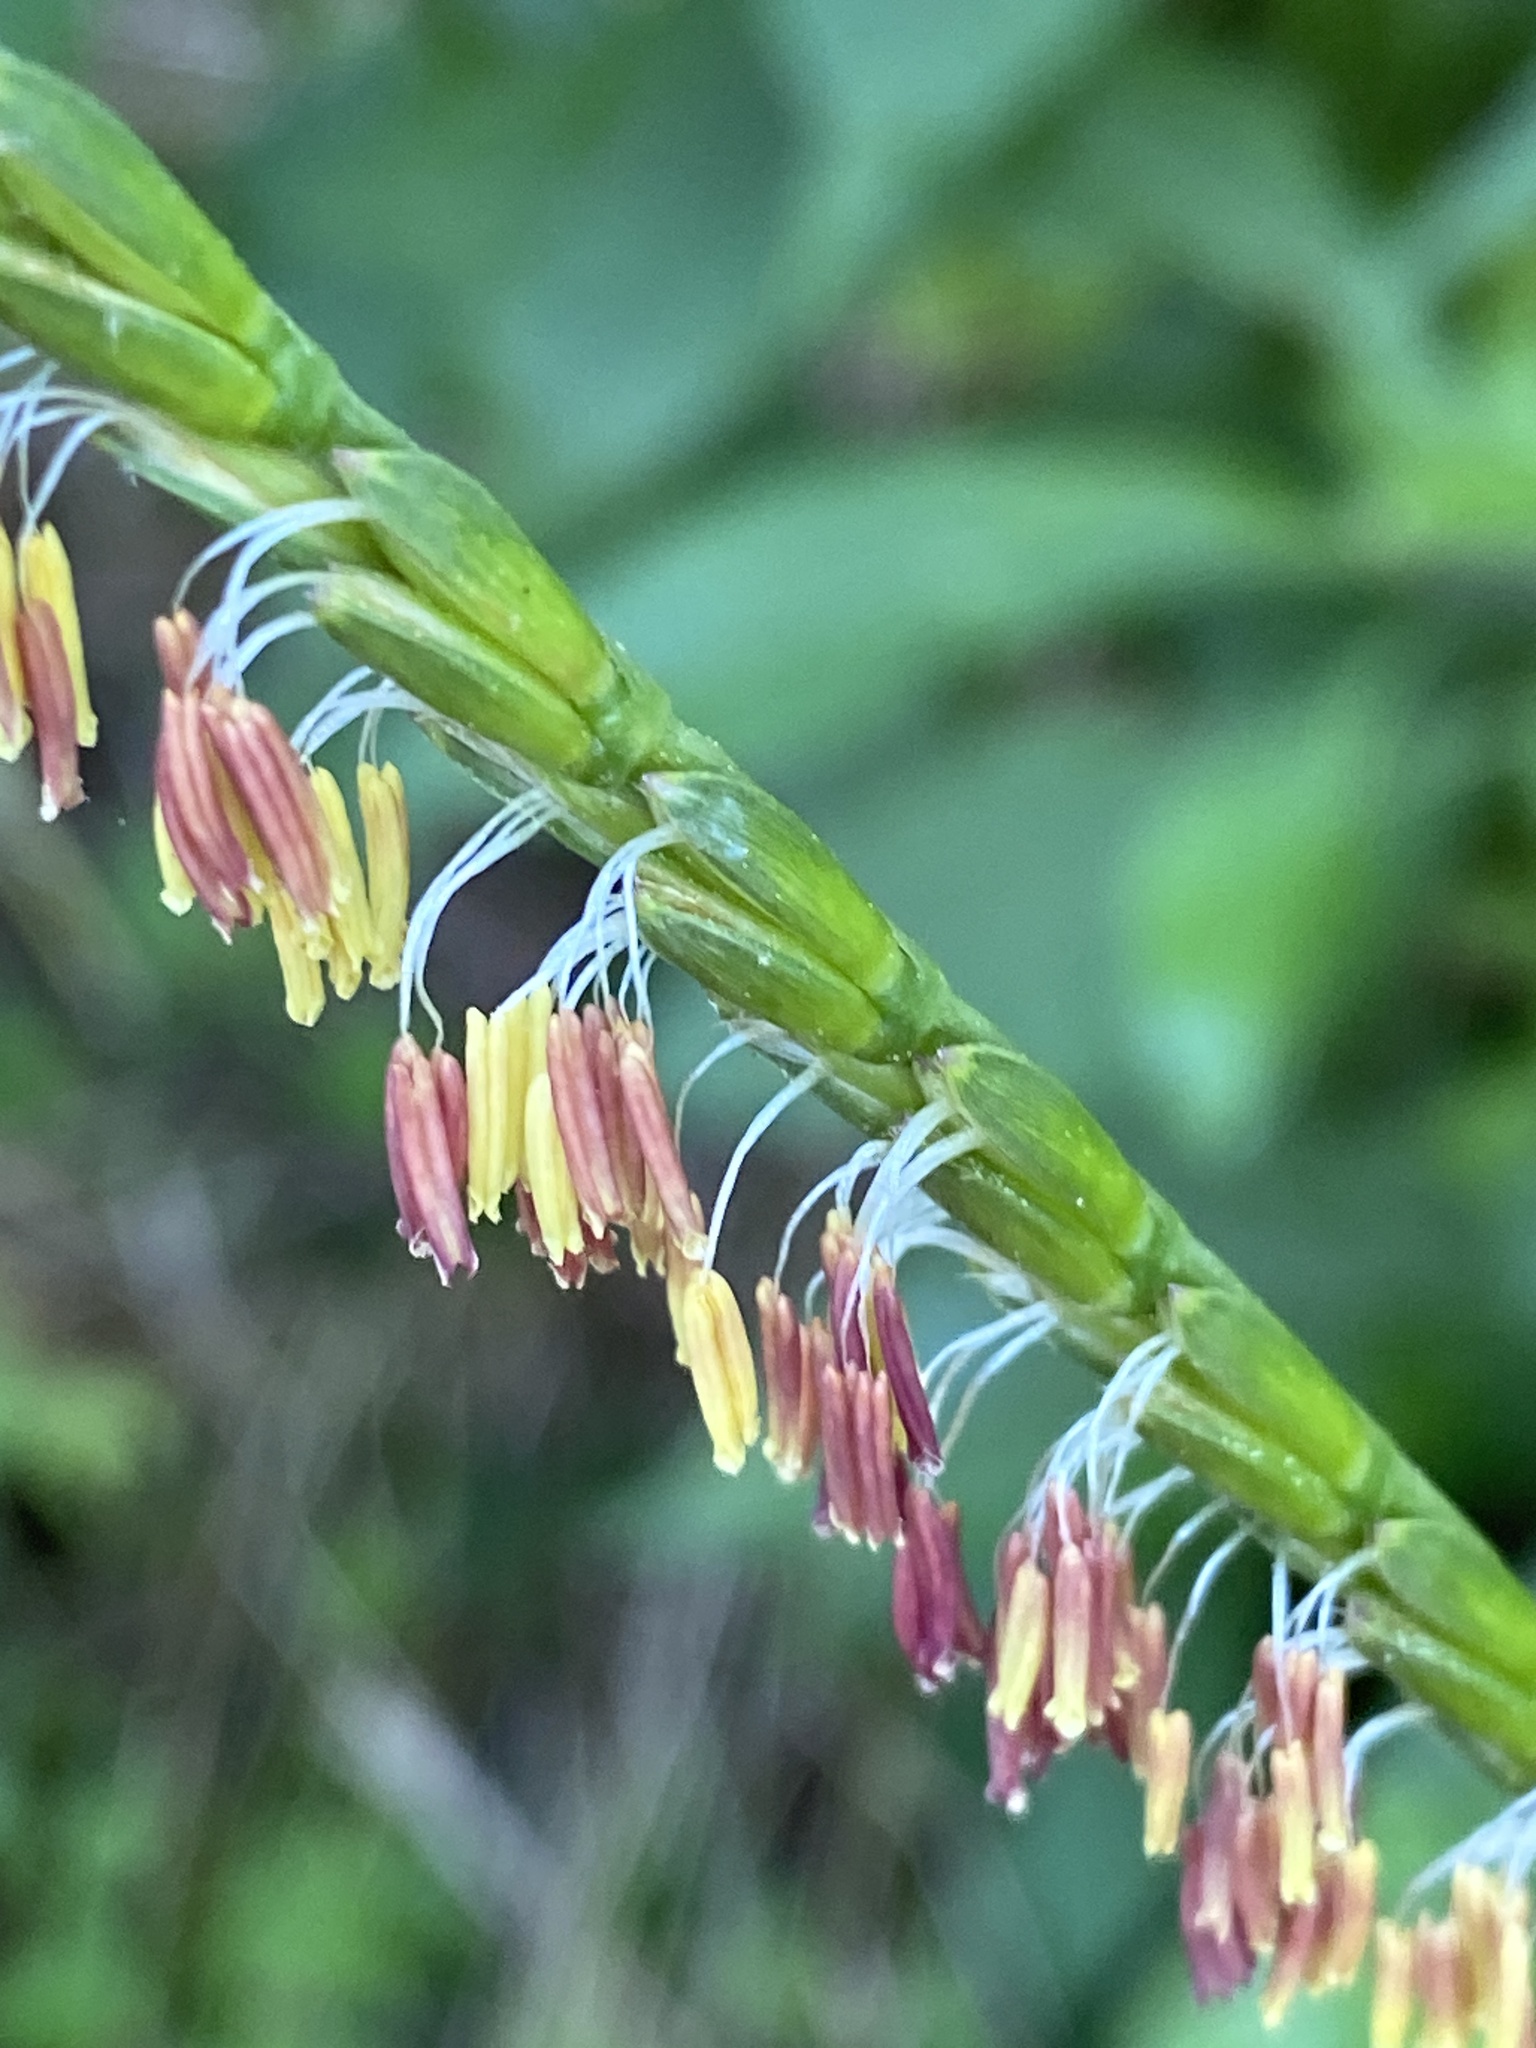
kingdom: Plantae
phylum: Tracheophyta
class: Liliopsida
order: Poales
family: Poaceae
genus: Tripsacum
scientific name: Tripsacum dactyloides
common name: Buffalo-grass
